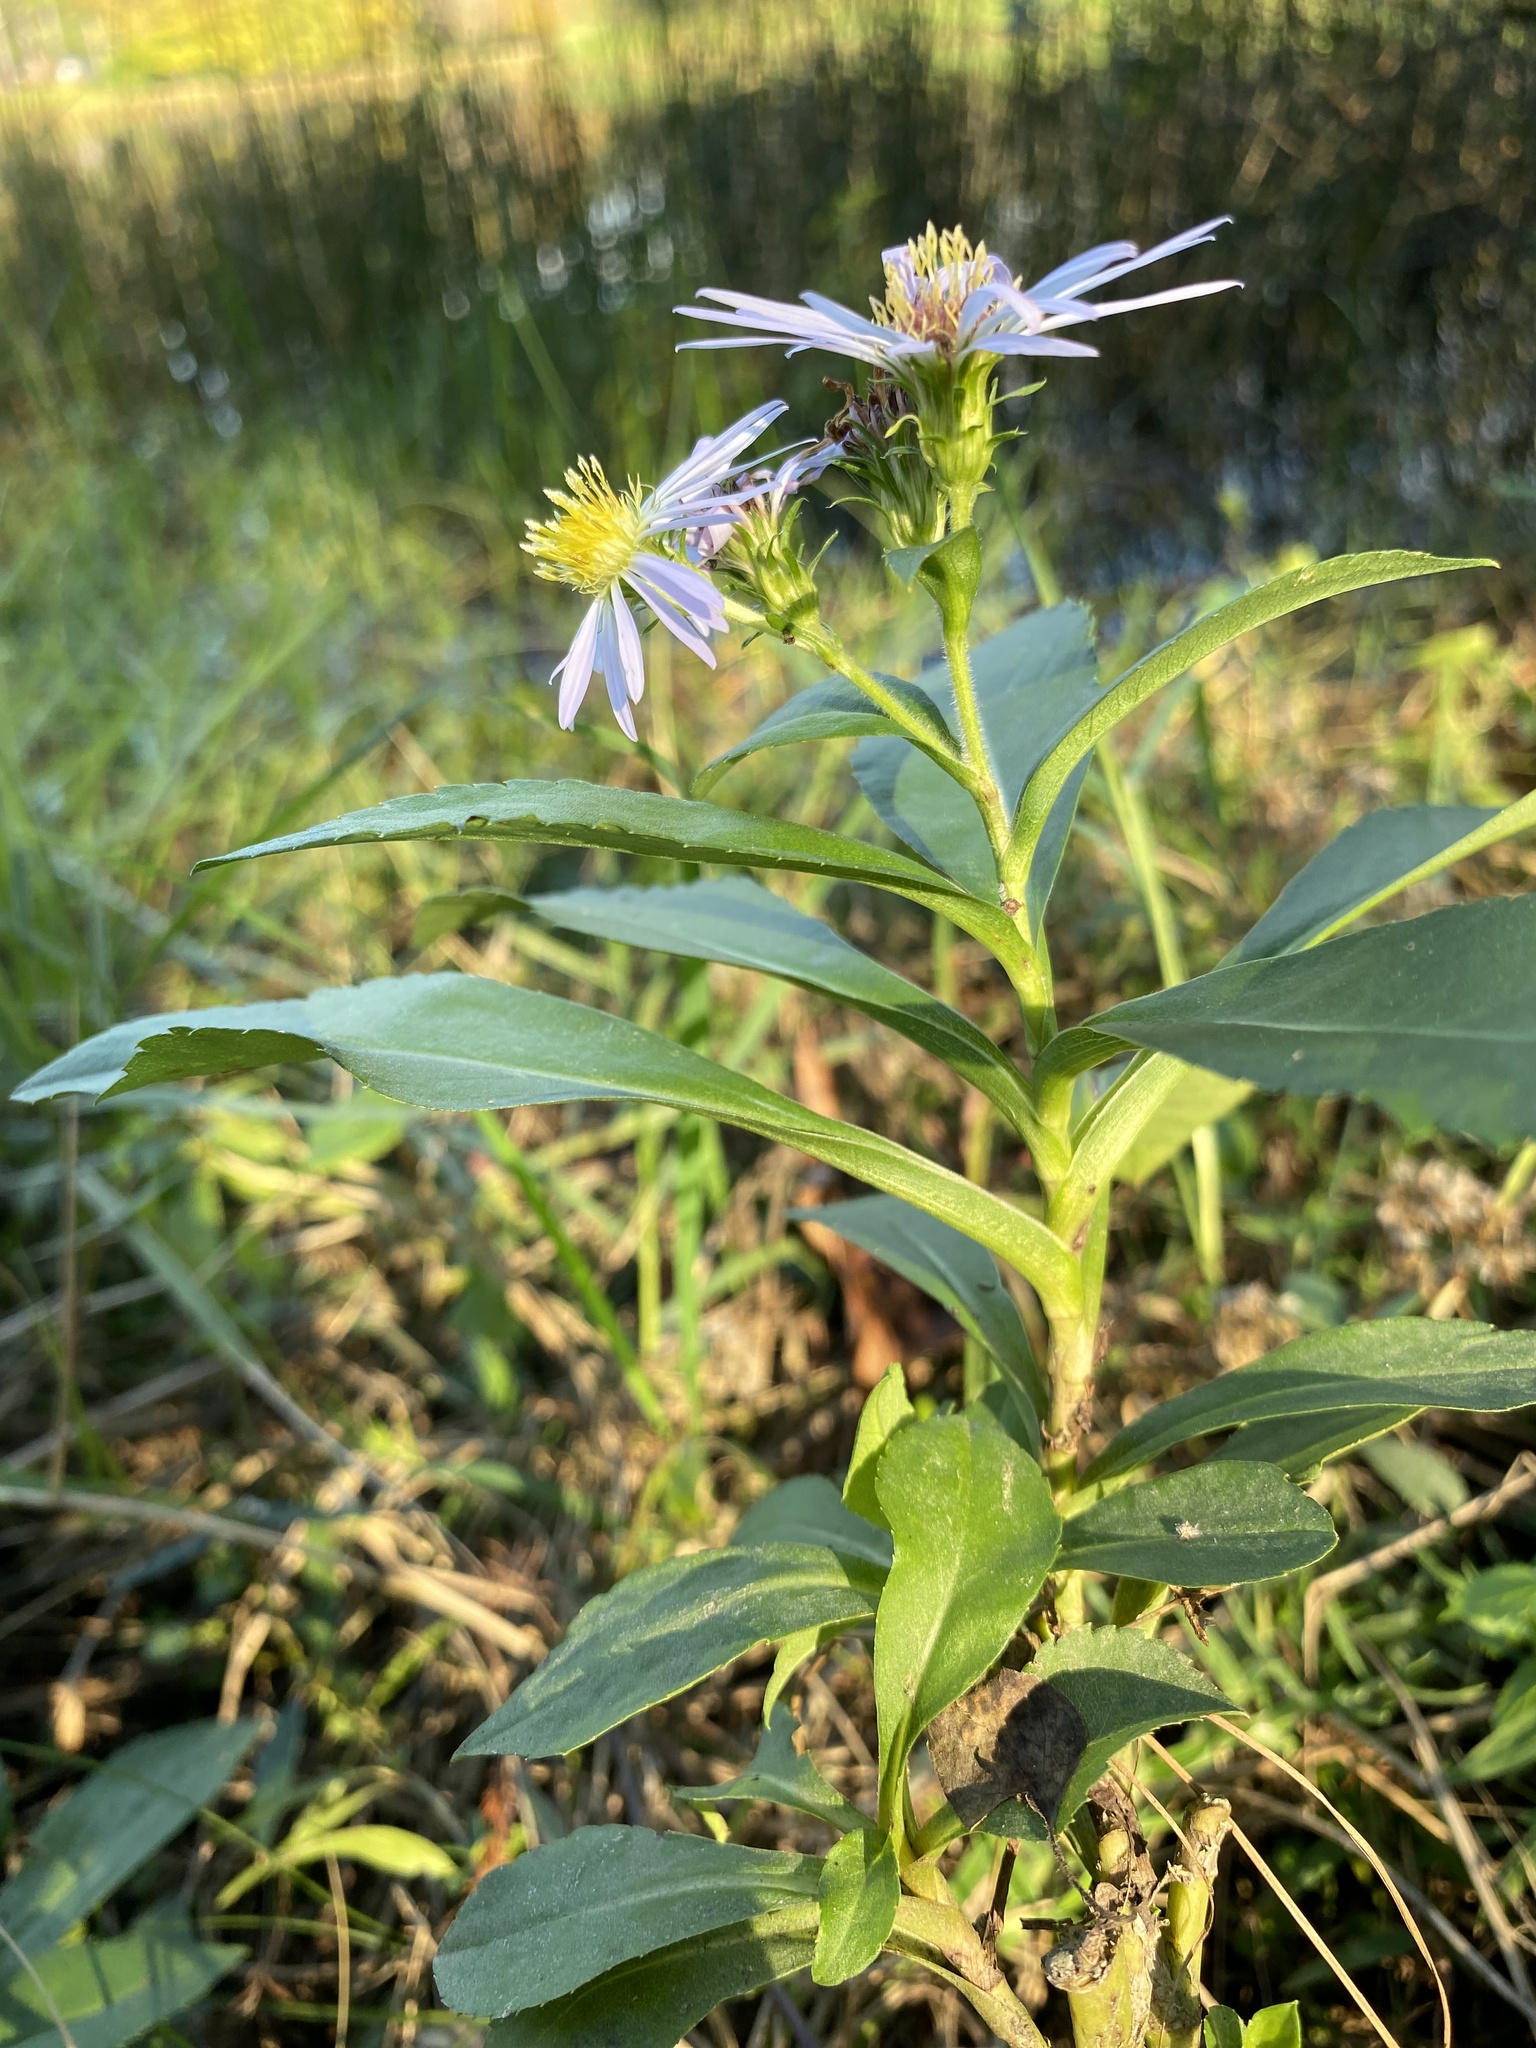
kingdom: Plantae
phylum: Tracheophyta
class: Magnoliopsida
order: Asterales
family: Asteraceae
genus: Symphyotrichum
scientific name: Symphyotrichum elliottii
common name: Southern swamp aster
